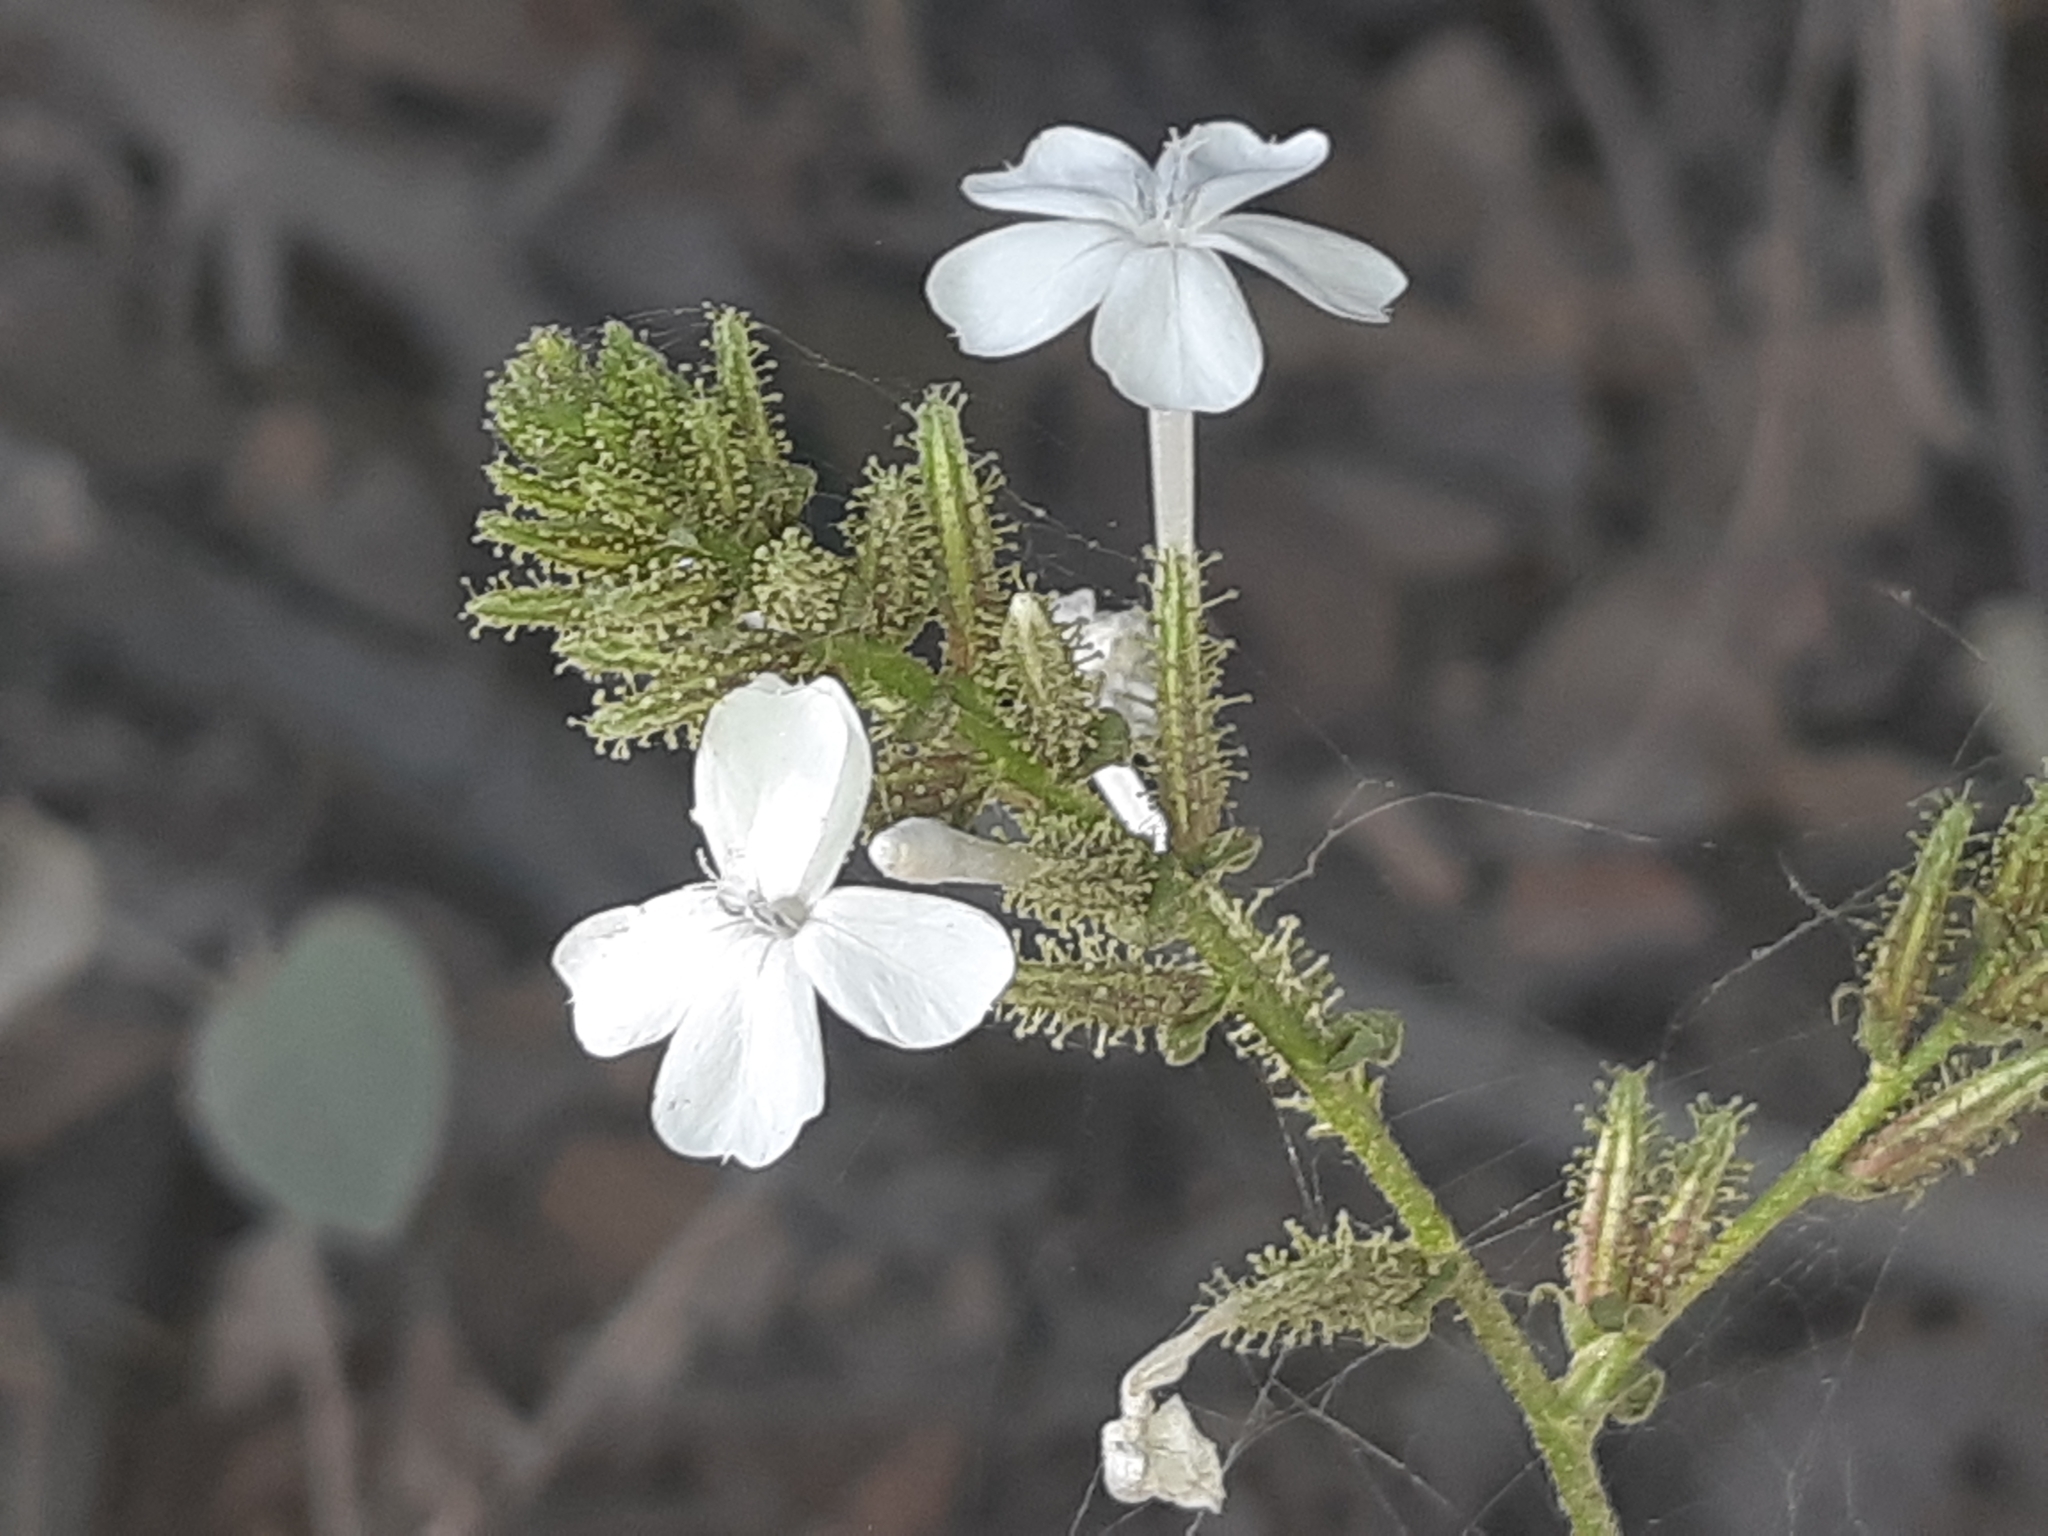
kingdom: Plantae
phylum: Tracheophyta
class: Magnoliopsida
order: Caryophyllales
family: Plumbaginaceae
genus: Plumbago
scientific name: Plumbago zeylanica
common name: Doctorbush
